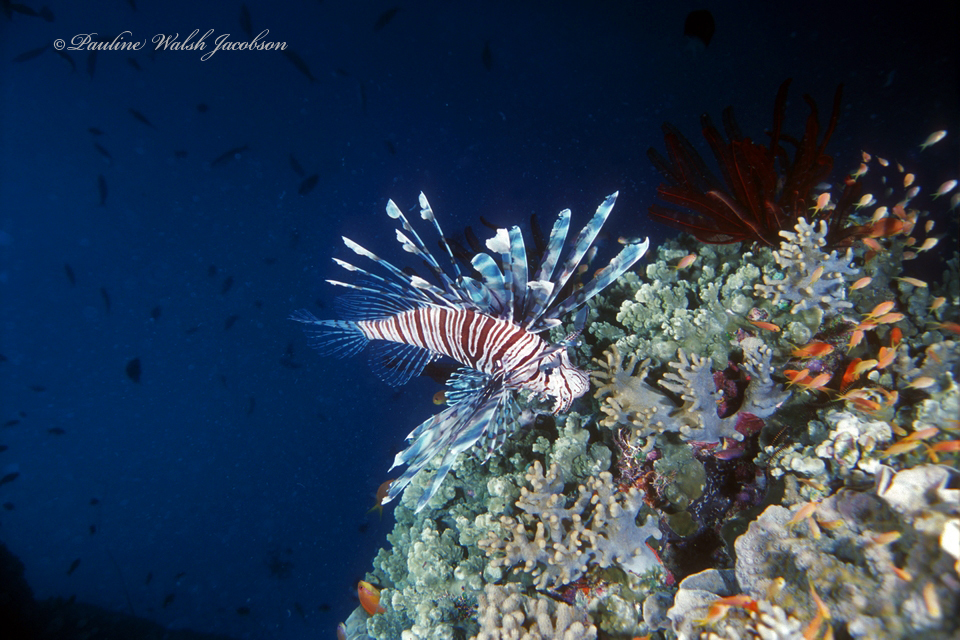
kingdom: Animalia
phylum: Chordata
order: Scorpaeniformes
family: Scorpaenidae
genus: Pterois
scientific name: Pterois volitans
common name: Lionfish
